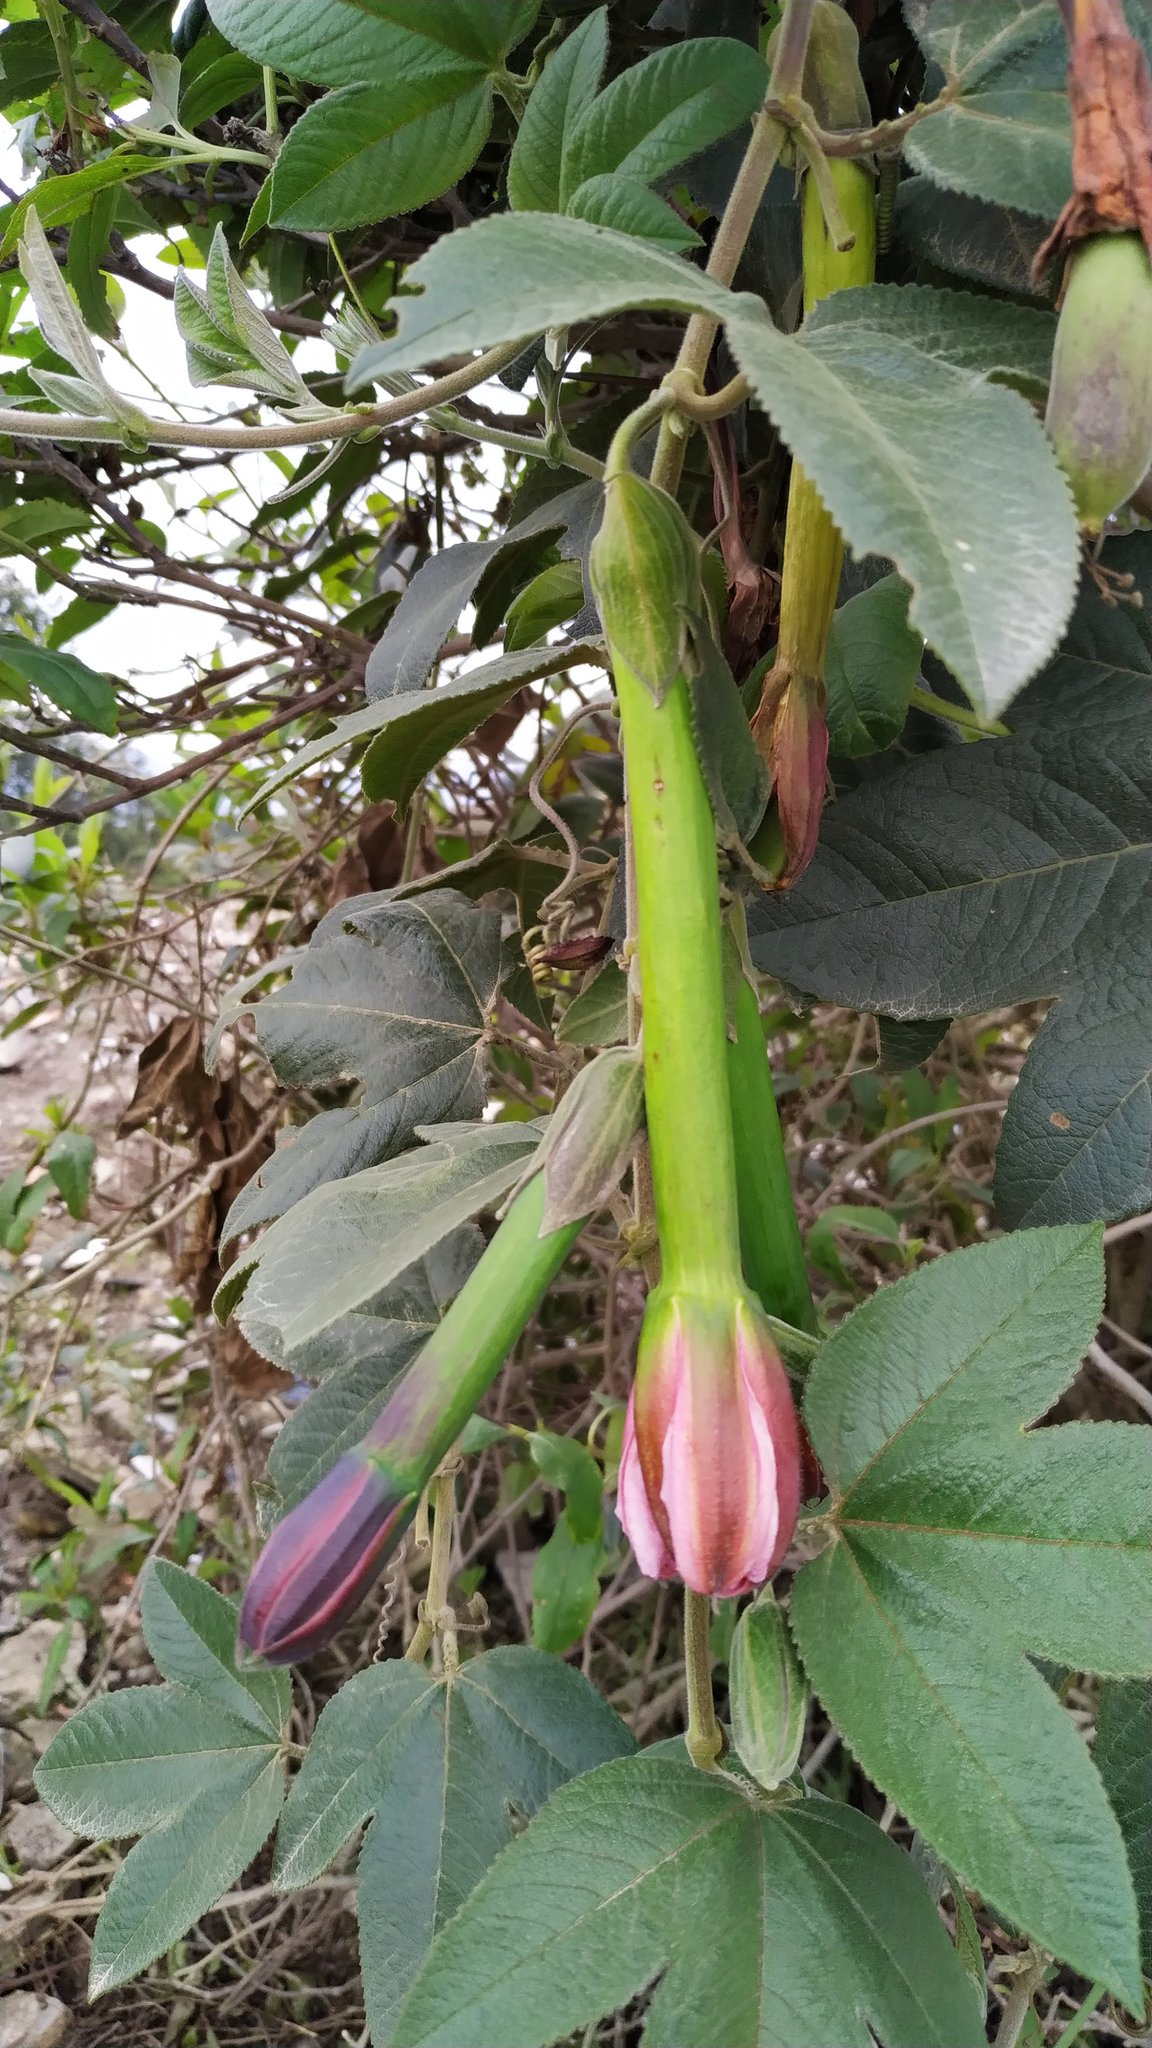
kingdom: Plantae
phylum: Tracheophyta
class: Magnoliopsida
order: Malpighiales
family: Passifloraceae
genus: Passiflora
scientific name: Passiflora tripartita
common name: Banana poka
